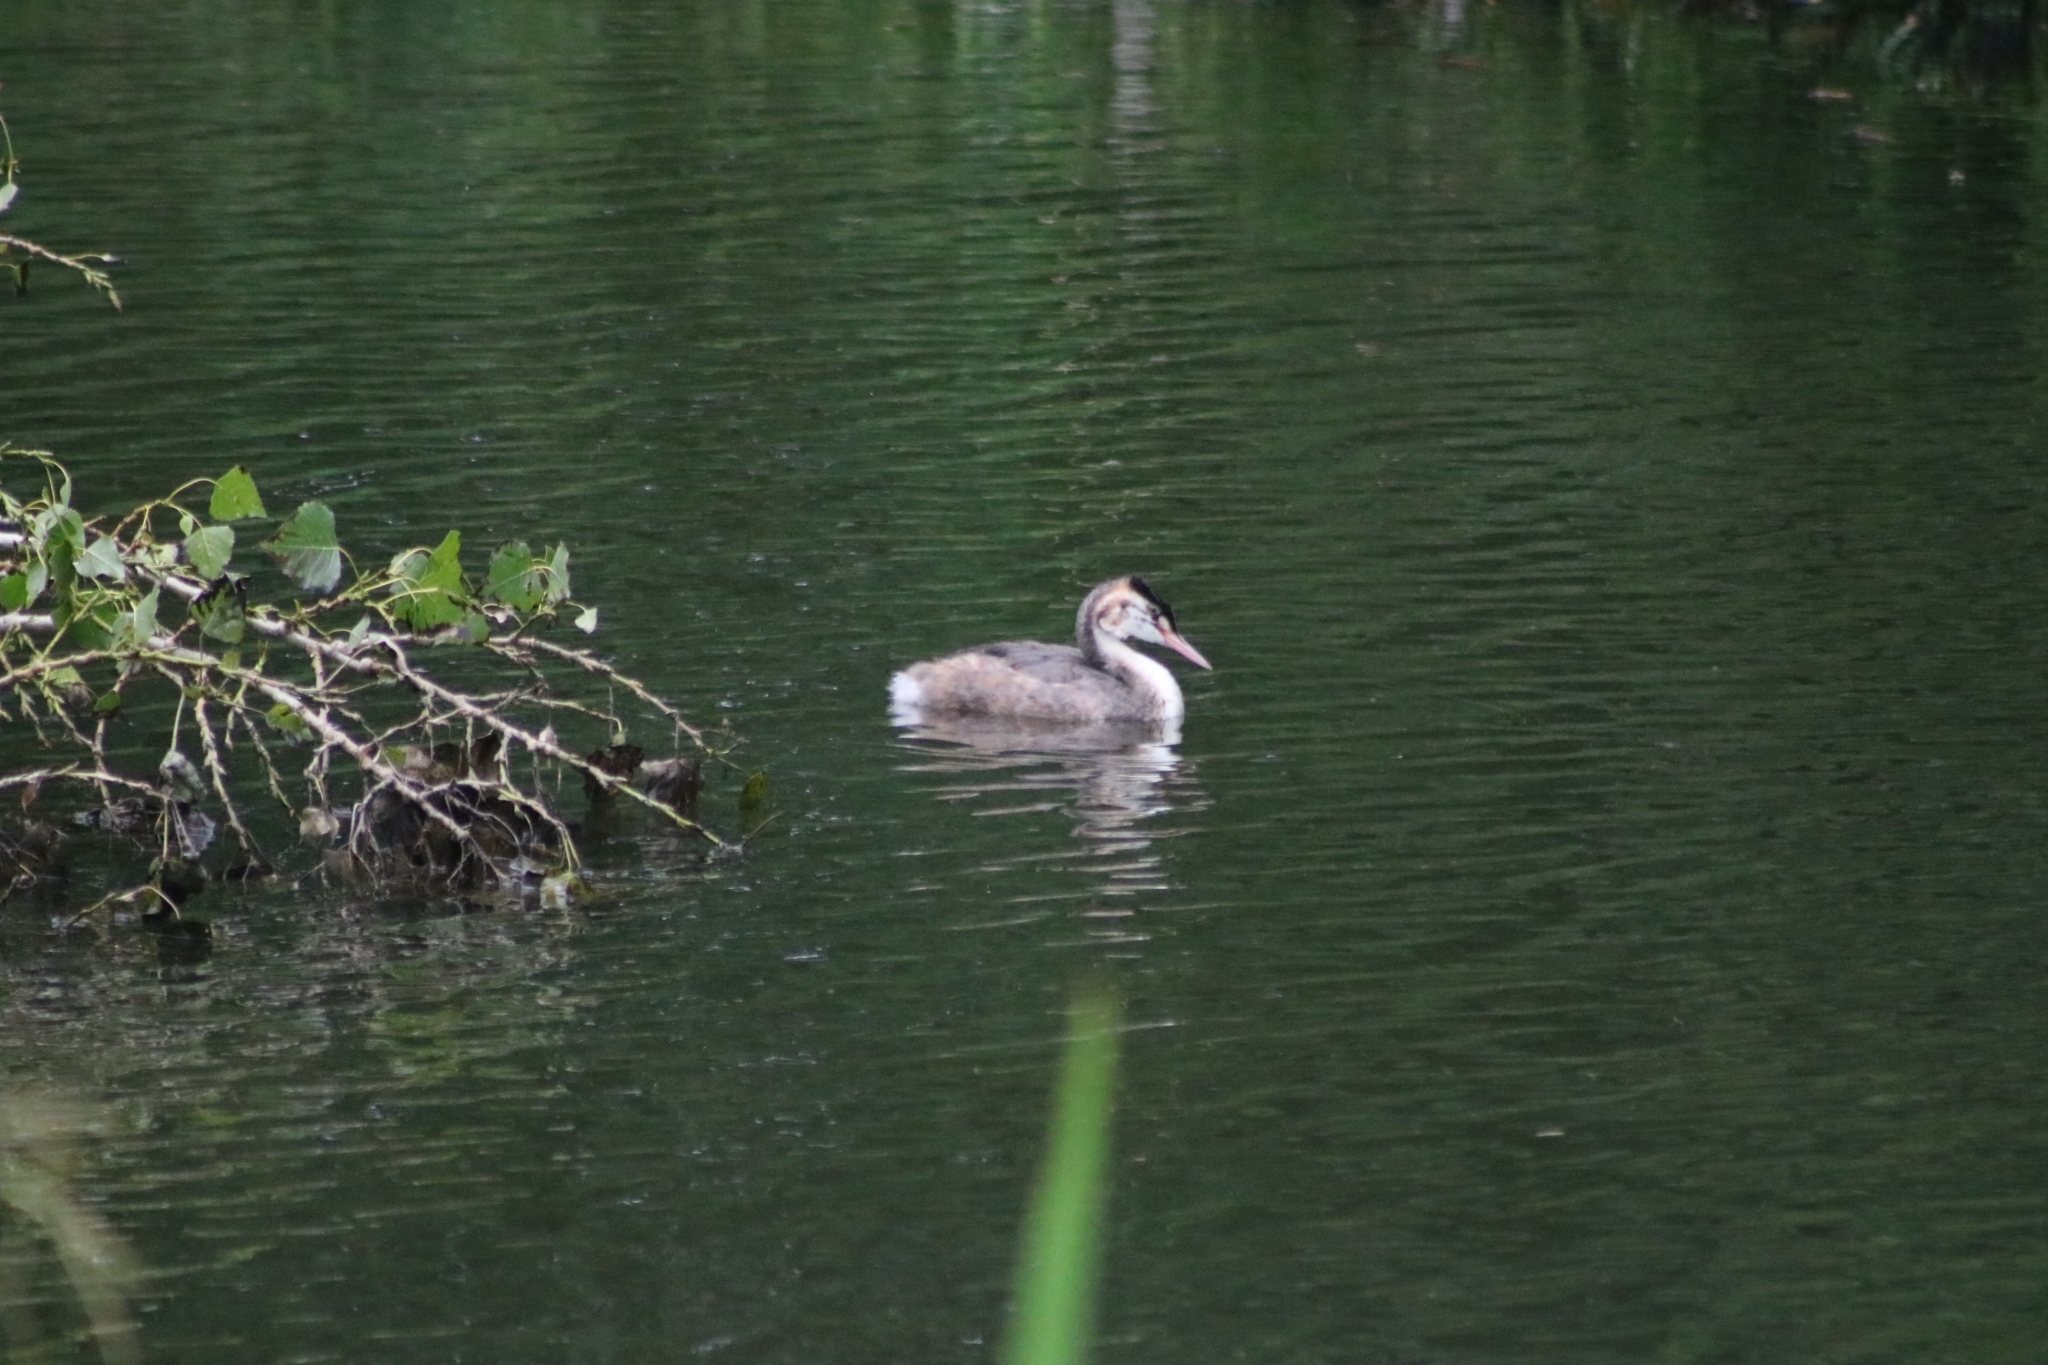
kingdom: Animalia
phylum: Chordata
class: Aves
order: Podicipediformes
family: Podicipedidae
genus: Podiceps
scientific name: Podiceps cristatus
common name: Great crested grebe
